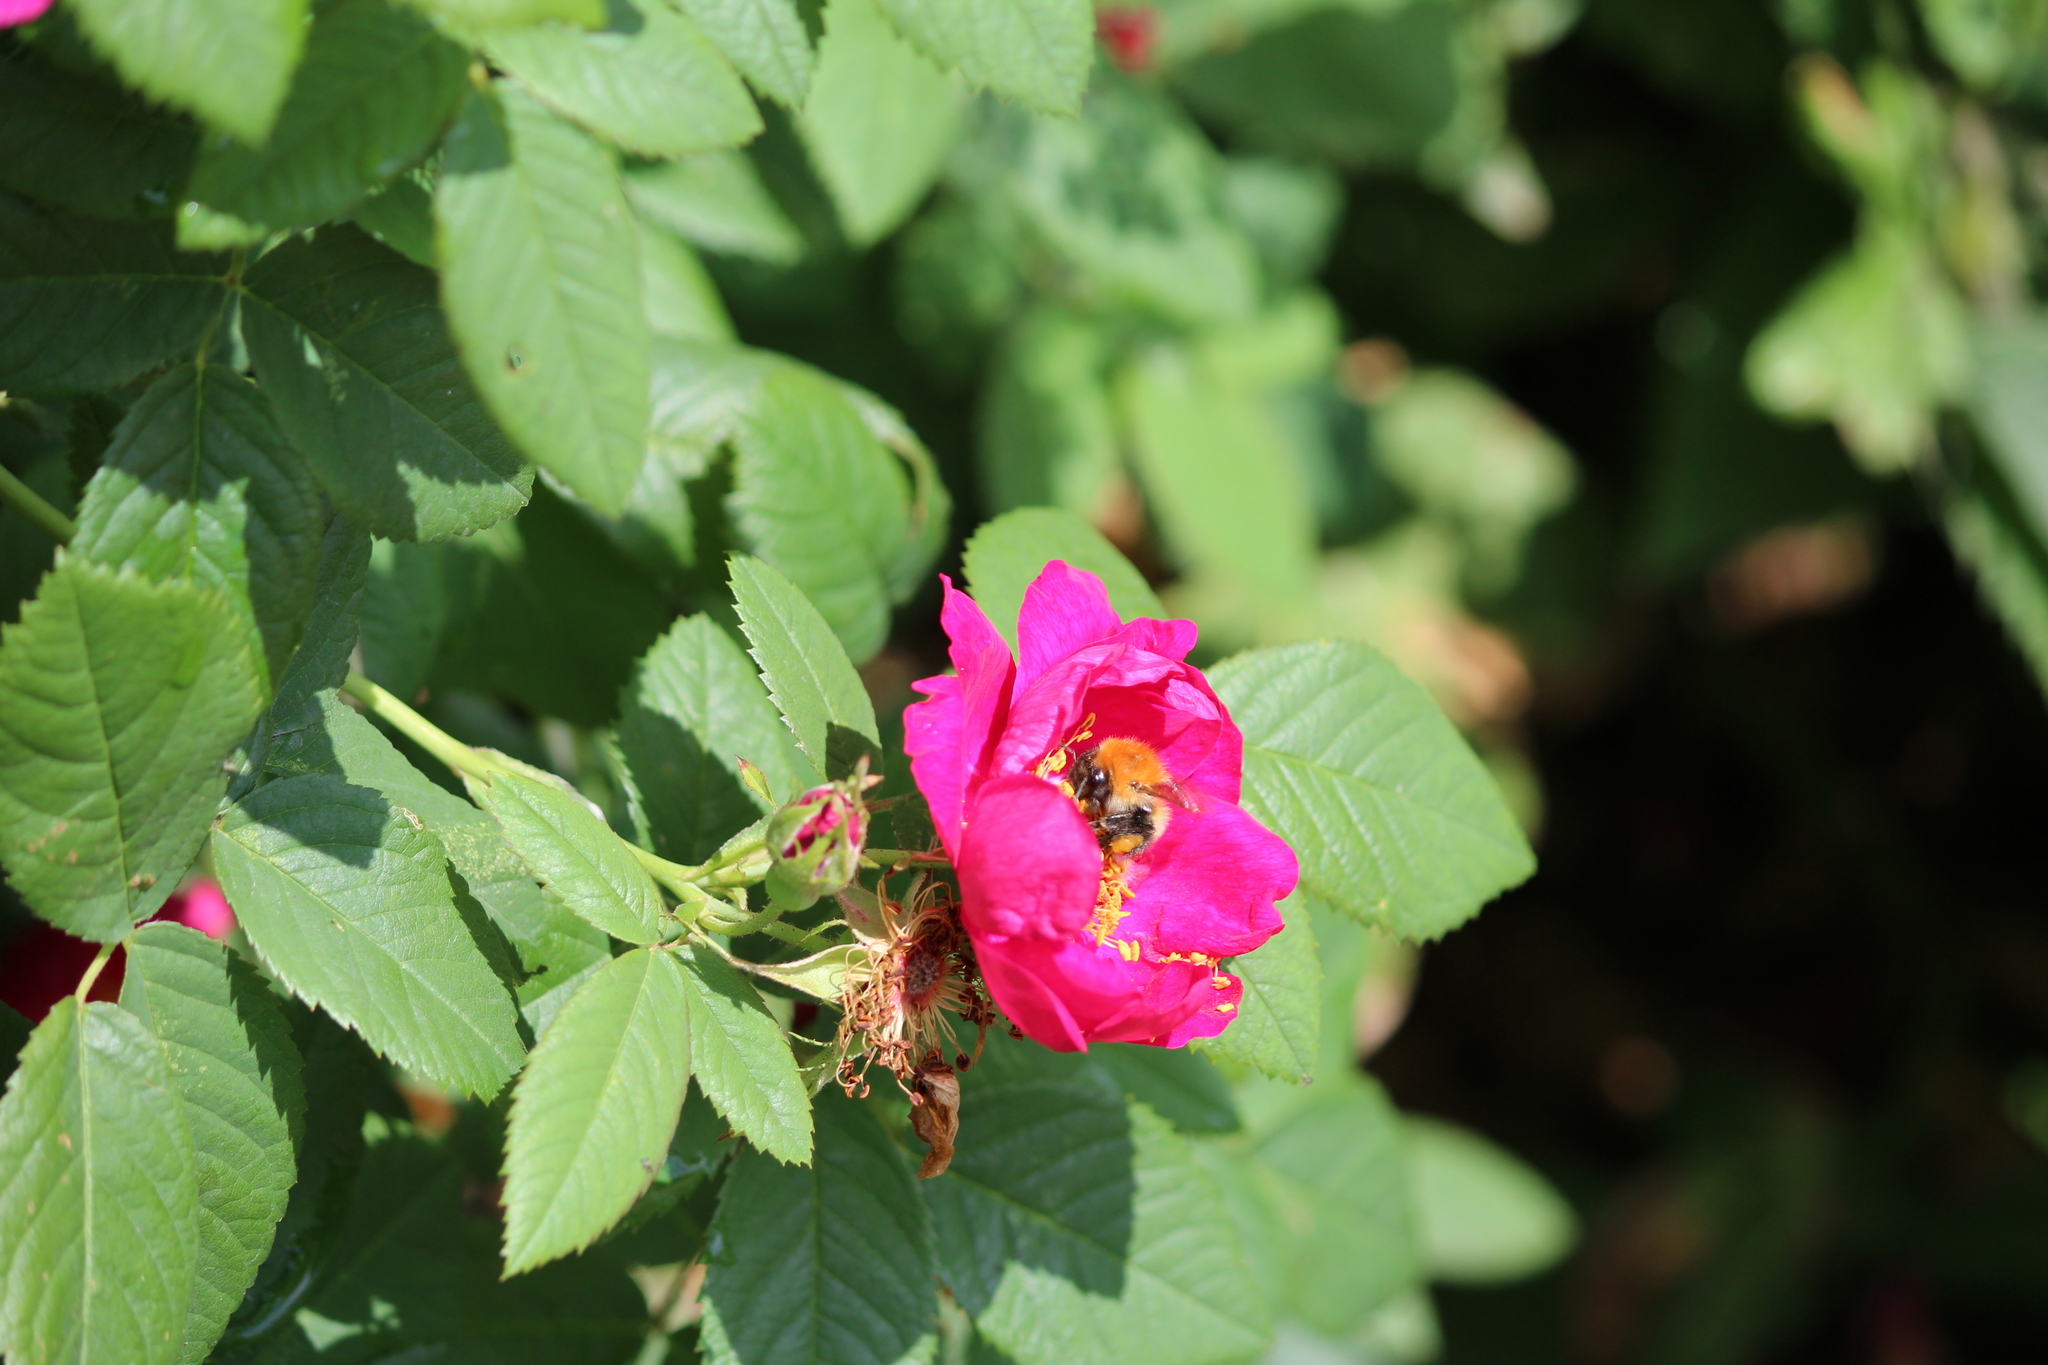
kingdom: Animalia
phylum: Arthropoda
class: Insecta
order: Hymenoptera
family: Apidae
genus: Bombus
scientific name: Bombus hypnorum
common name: New garden bumblebee
